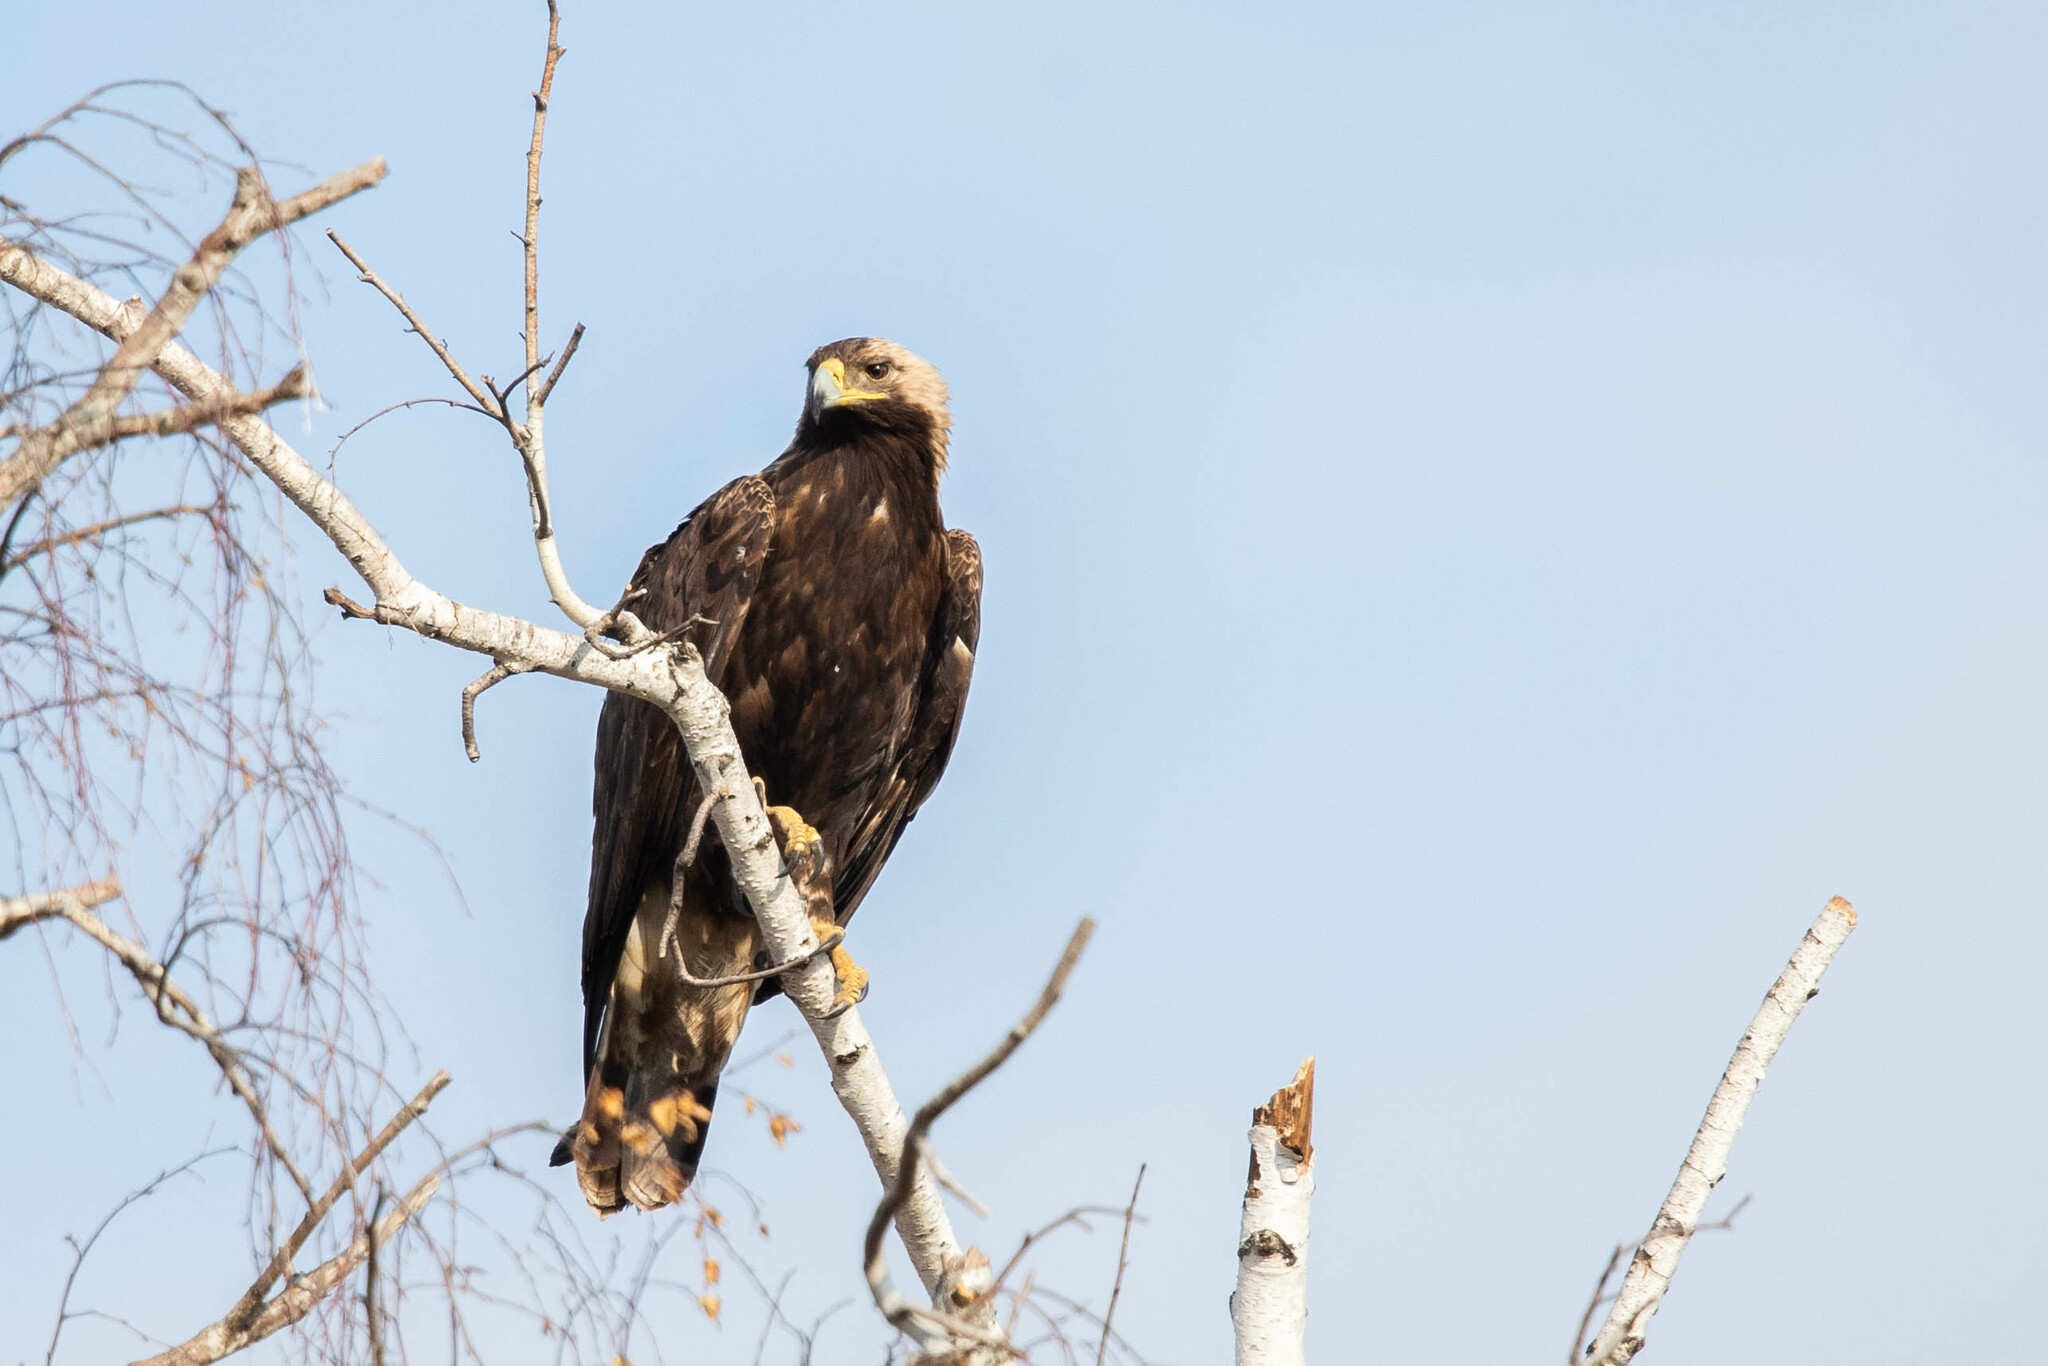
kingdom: Animalia
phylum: Chordata
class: Aves
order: Accipitriformes
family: Accipitridae
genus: Aquila
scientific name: Aquila heliaca
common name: Eastern imperial eagle
